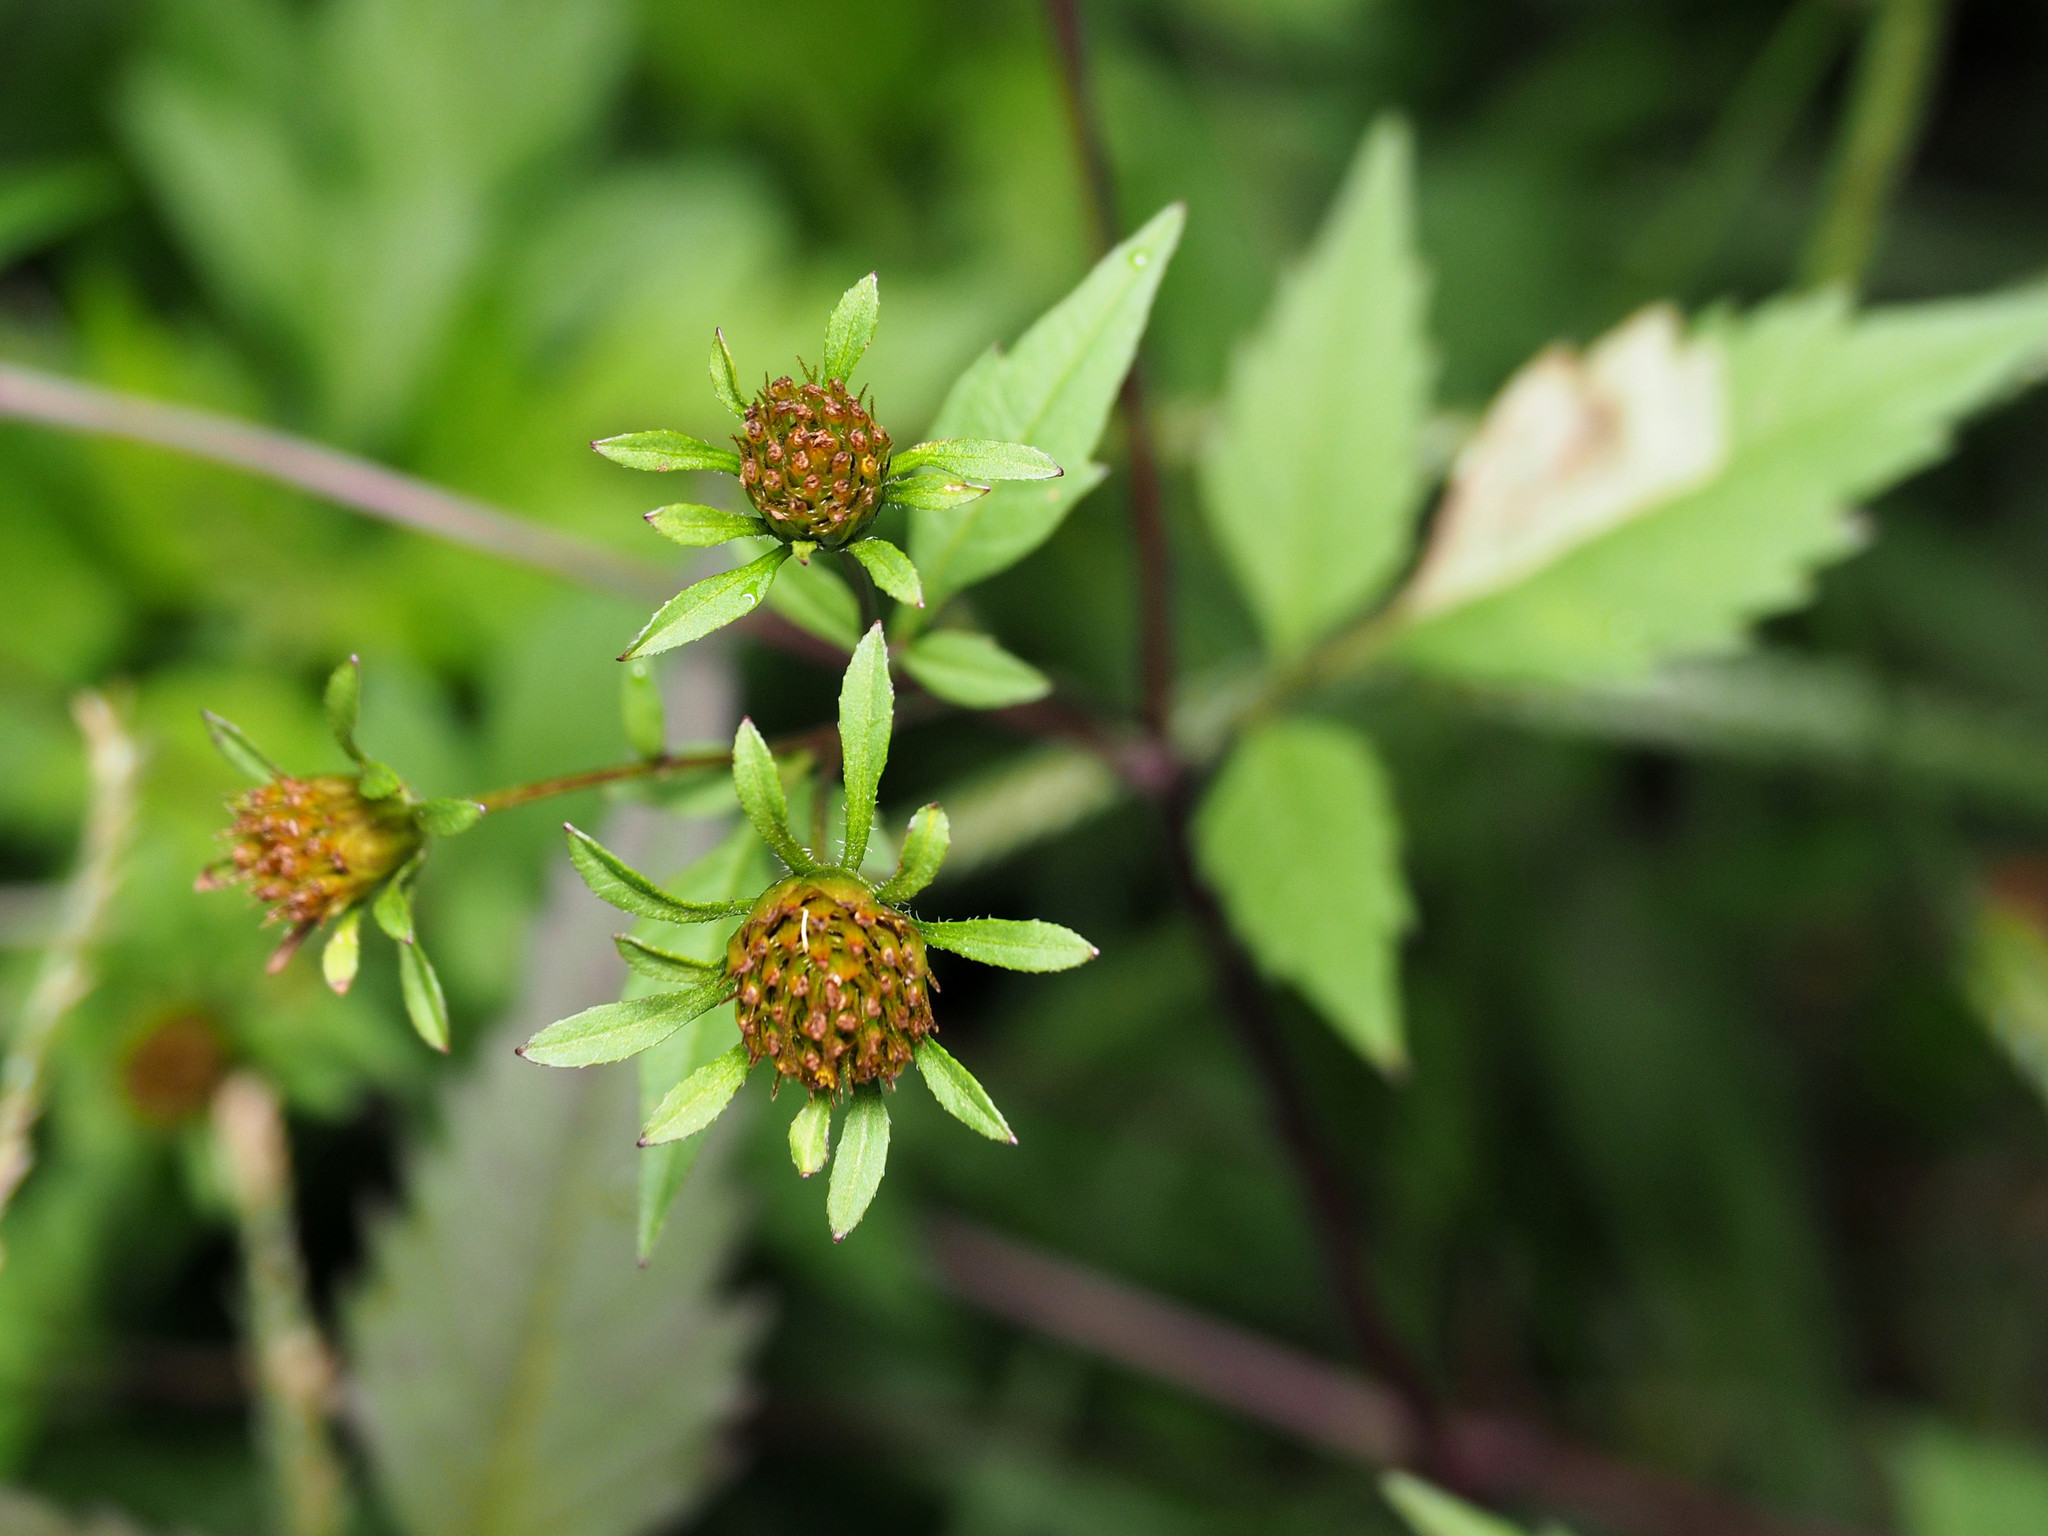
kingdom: Plantae
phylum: Tracheophyta
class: Magnoliopsida
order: Asterales
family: Asteraceae
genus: Bidens
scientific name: Bidens frondosa
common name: Beggarticks
